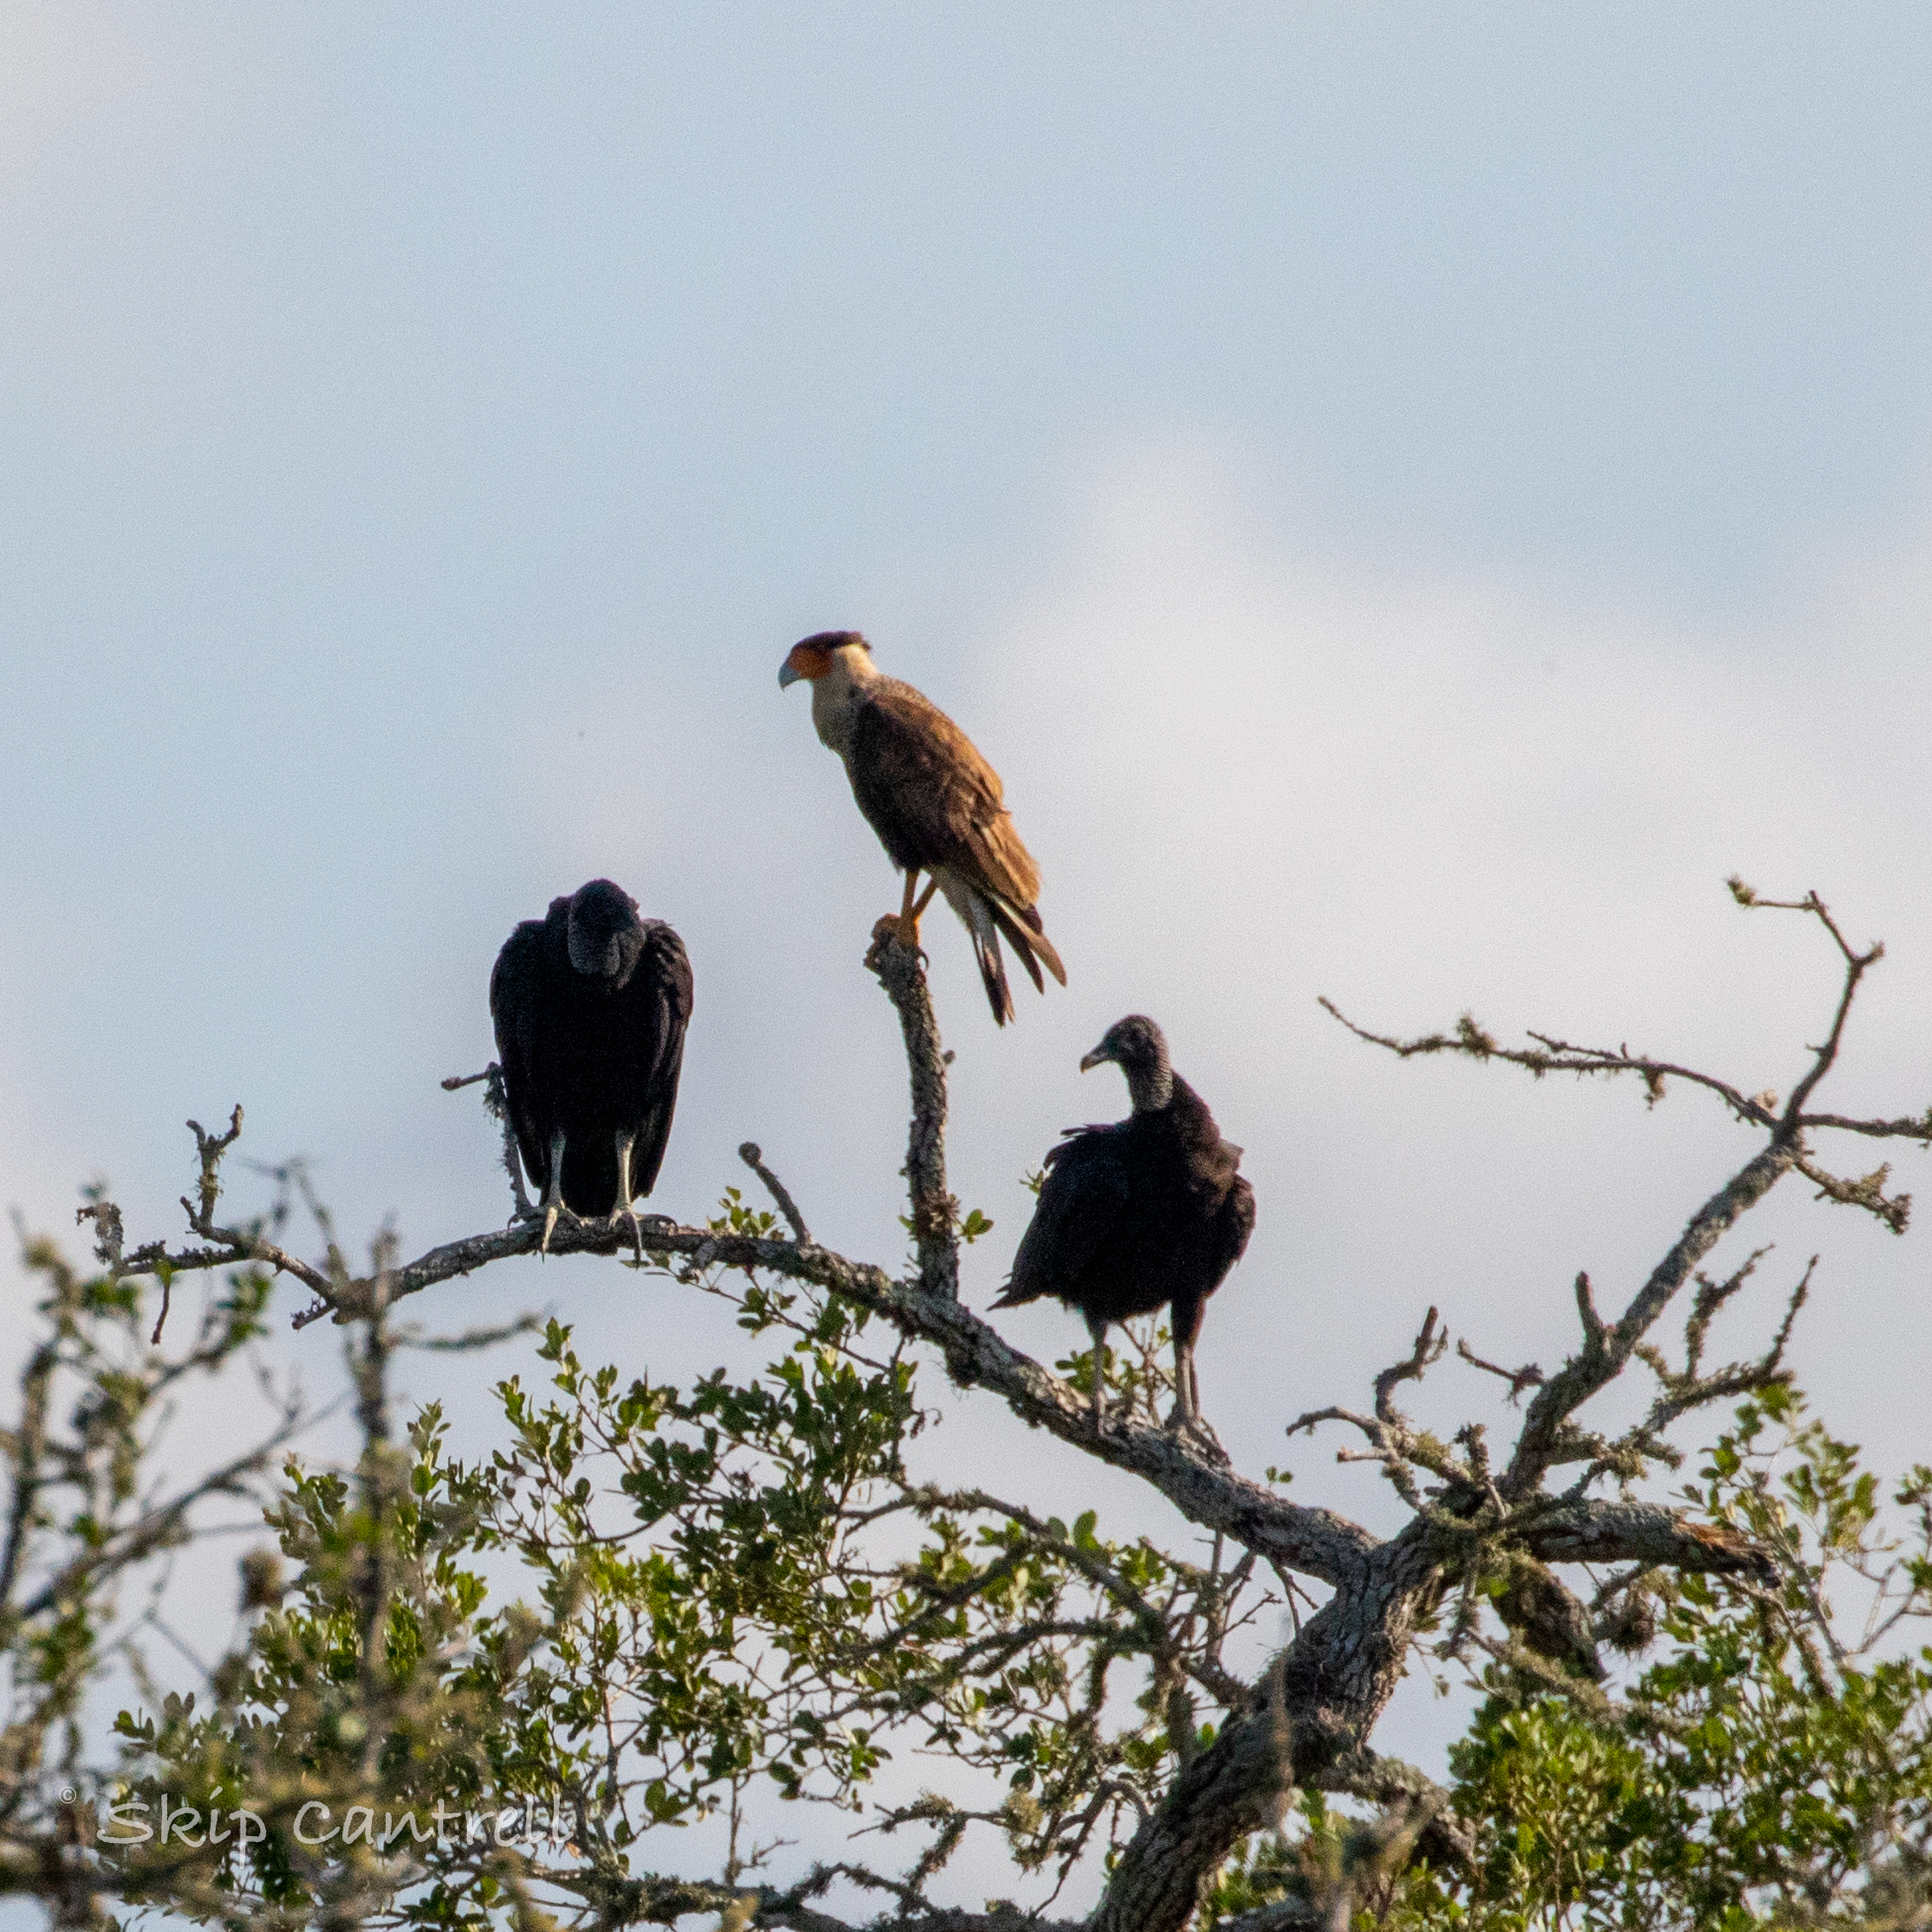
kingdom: Animalia
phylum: Chordata
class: Aves
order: Falconiformes
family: Falconidae
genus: Caracara
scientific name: Caracara plancus
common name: Southern caracara
